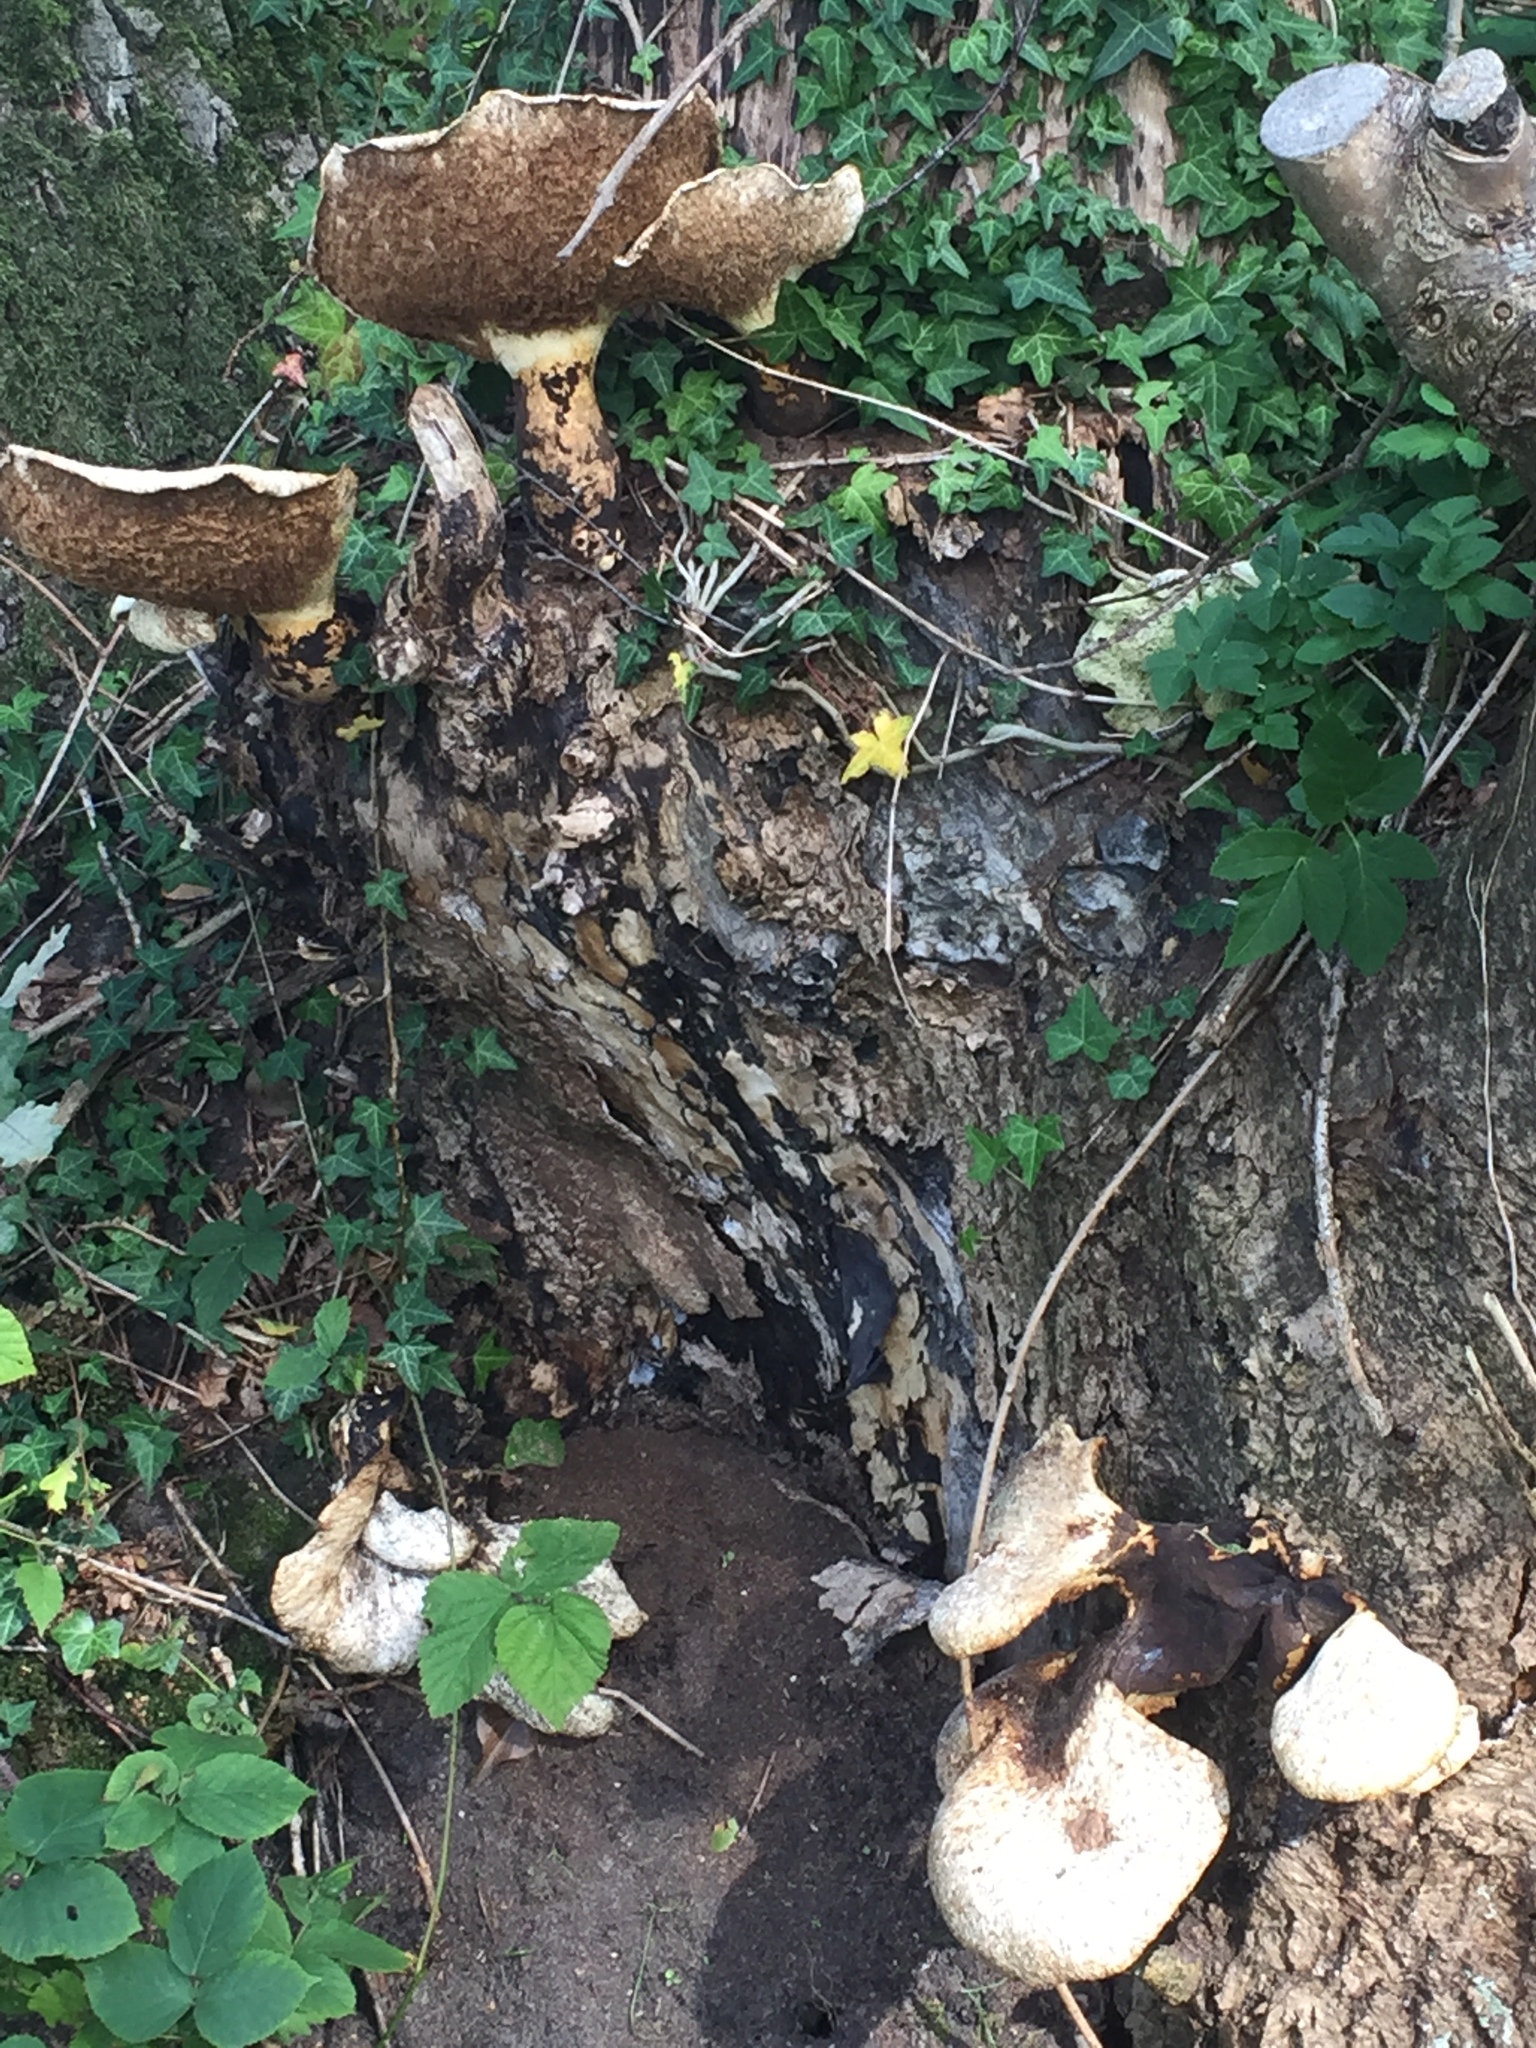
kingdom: Fungi
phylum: Basidiomycota
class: Agaricomycetes
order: Polyporales
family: Polyporaceae
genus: Cerioporus
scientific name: Cerioporus squamosus
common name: Dryad's saddle
